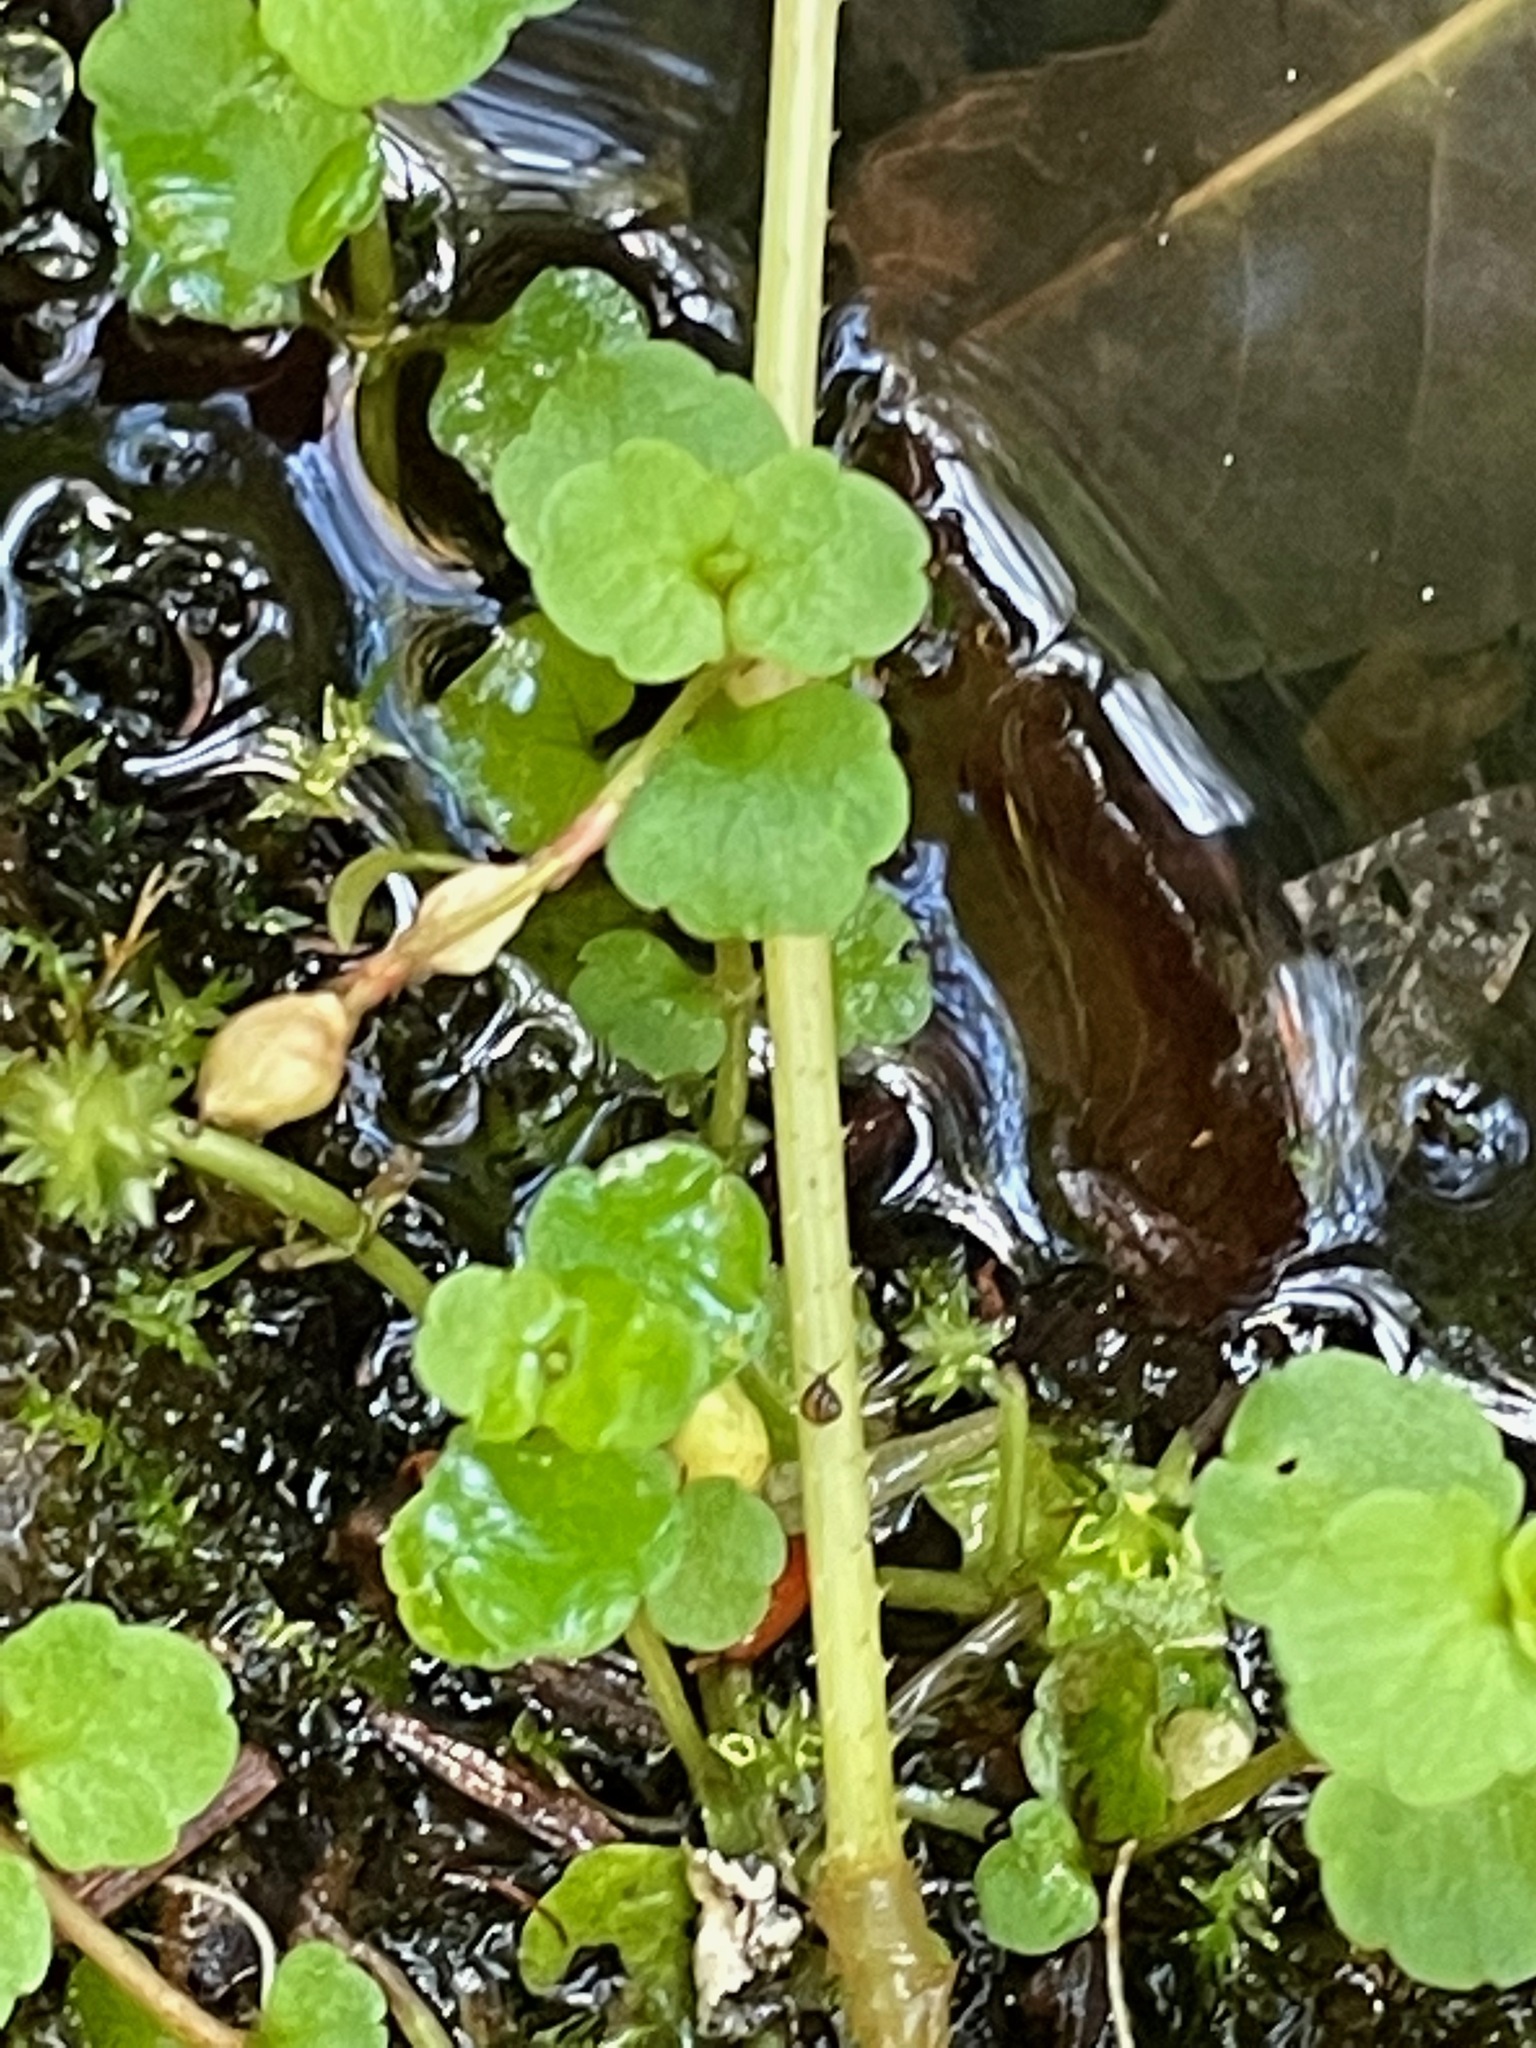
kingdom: Plantae
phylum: Tracheophyta
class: Magnoliopsida
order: Saxifragales
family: Saxifragaceae
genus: Chrysosplenium
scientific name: Chrysosplenium americanum
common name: American golden-saxifrage
